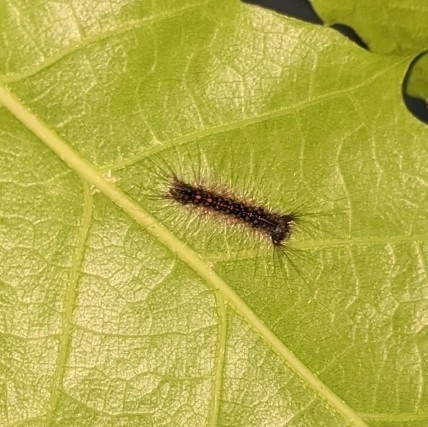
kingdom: Animalia
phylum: Arthropoda
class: Insecta
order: Lepidoptera
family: Erebidae
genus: Lymantria
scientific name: Lymantria dispar
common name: Gypsy moth
